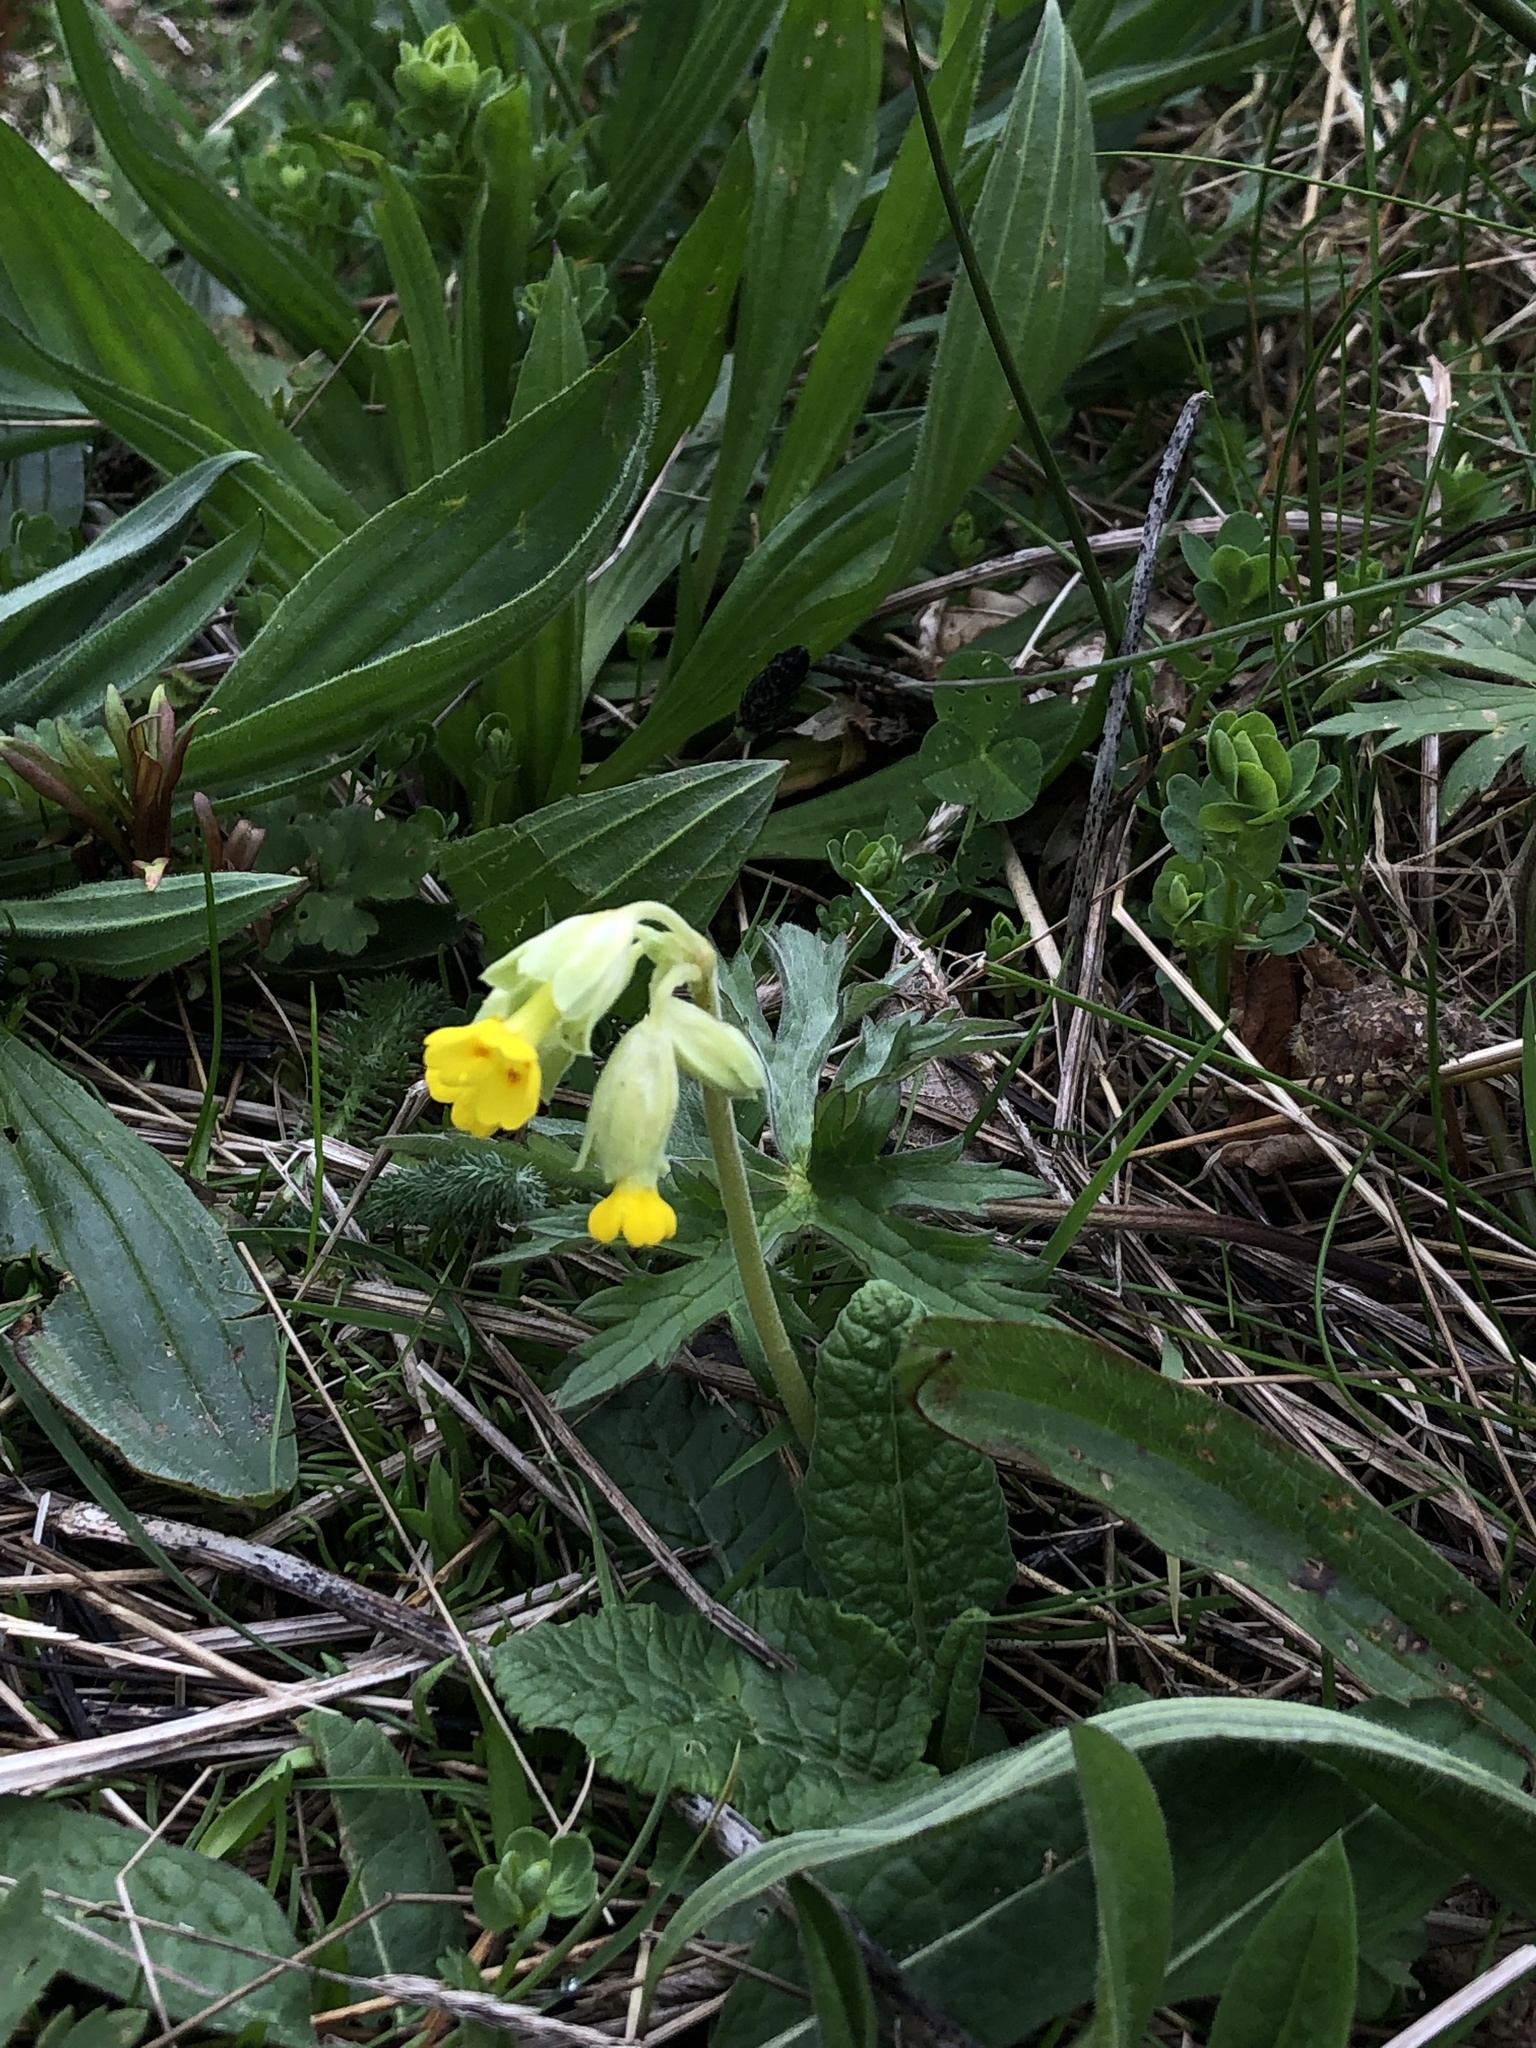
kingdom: Plantae
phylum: Tracheophyta
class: Magnoliopsida
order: Ericales
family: Primulaceae
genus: Primula
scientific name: Primula veris
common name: Cowslip
